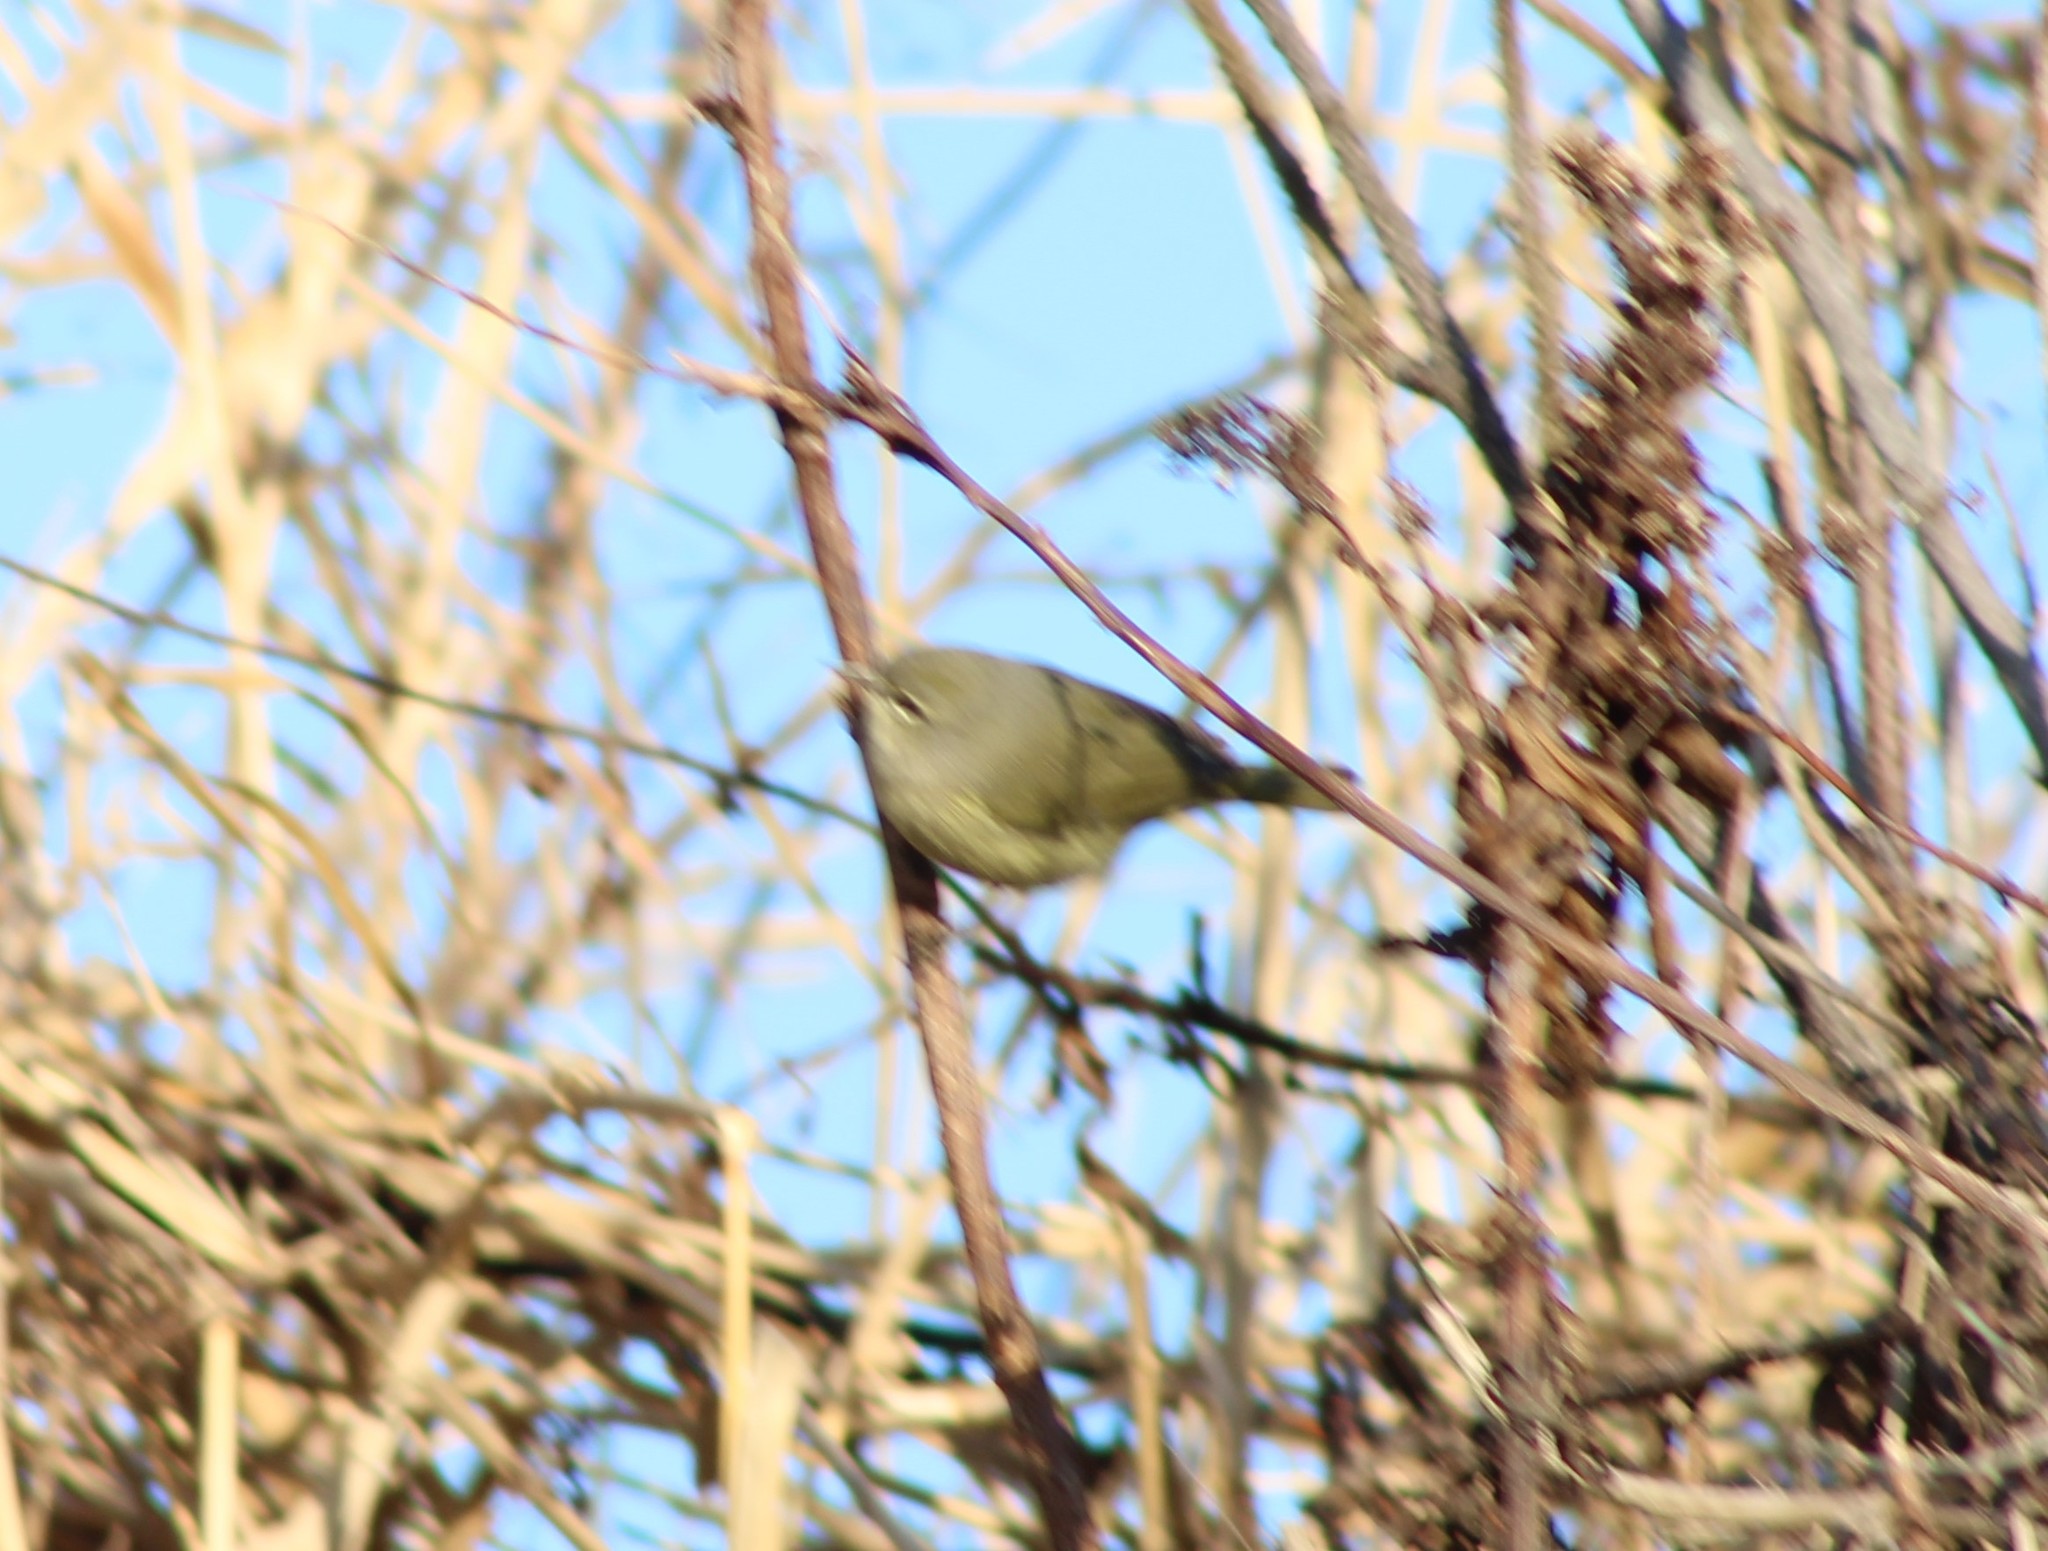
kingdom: Animalia
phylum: Chordata
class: Aves
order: Passeriformes
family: Parulidae
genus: Leiothlypis
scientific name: Leiothlypis celata
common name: Orange-crowned warbler
